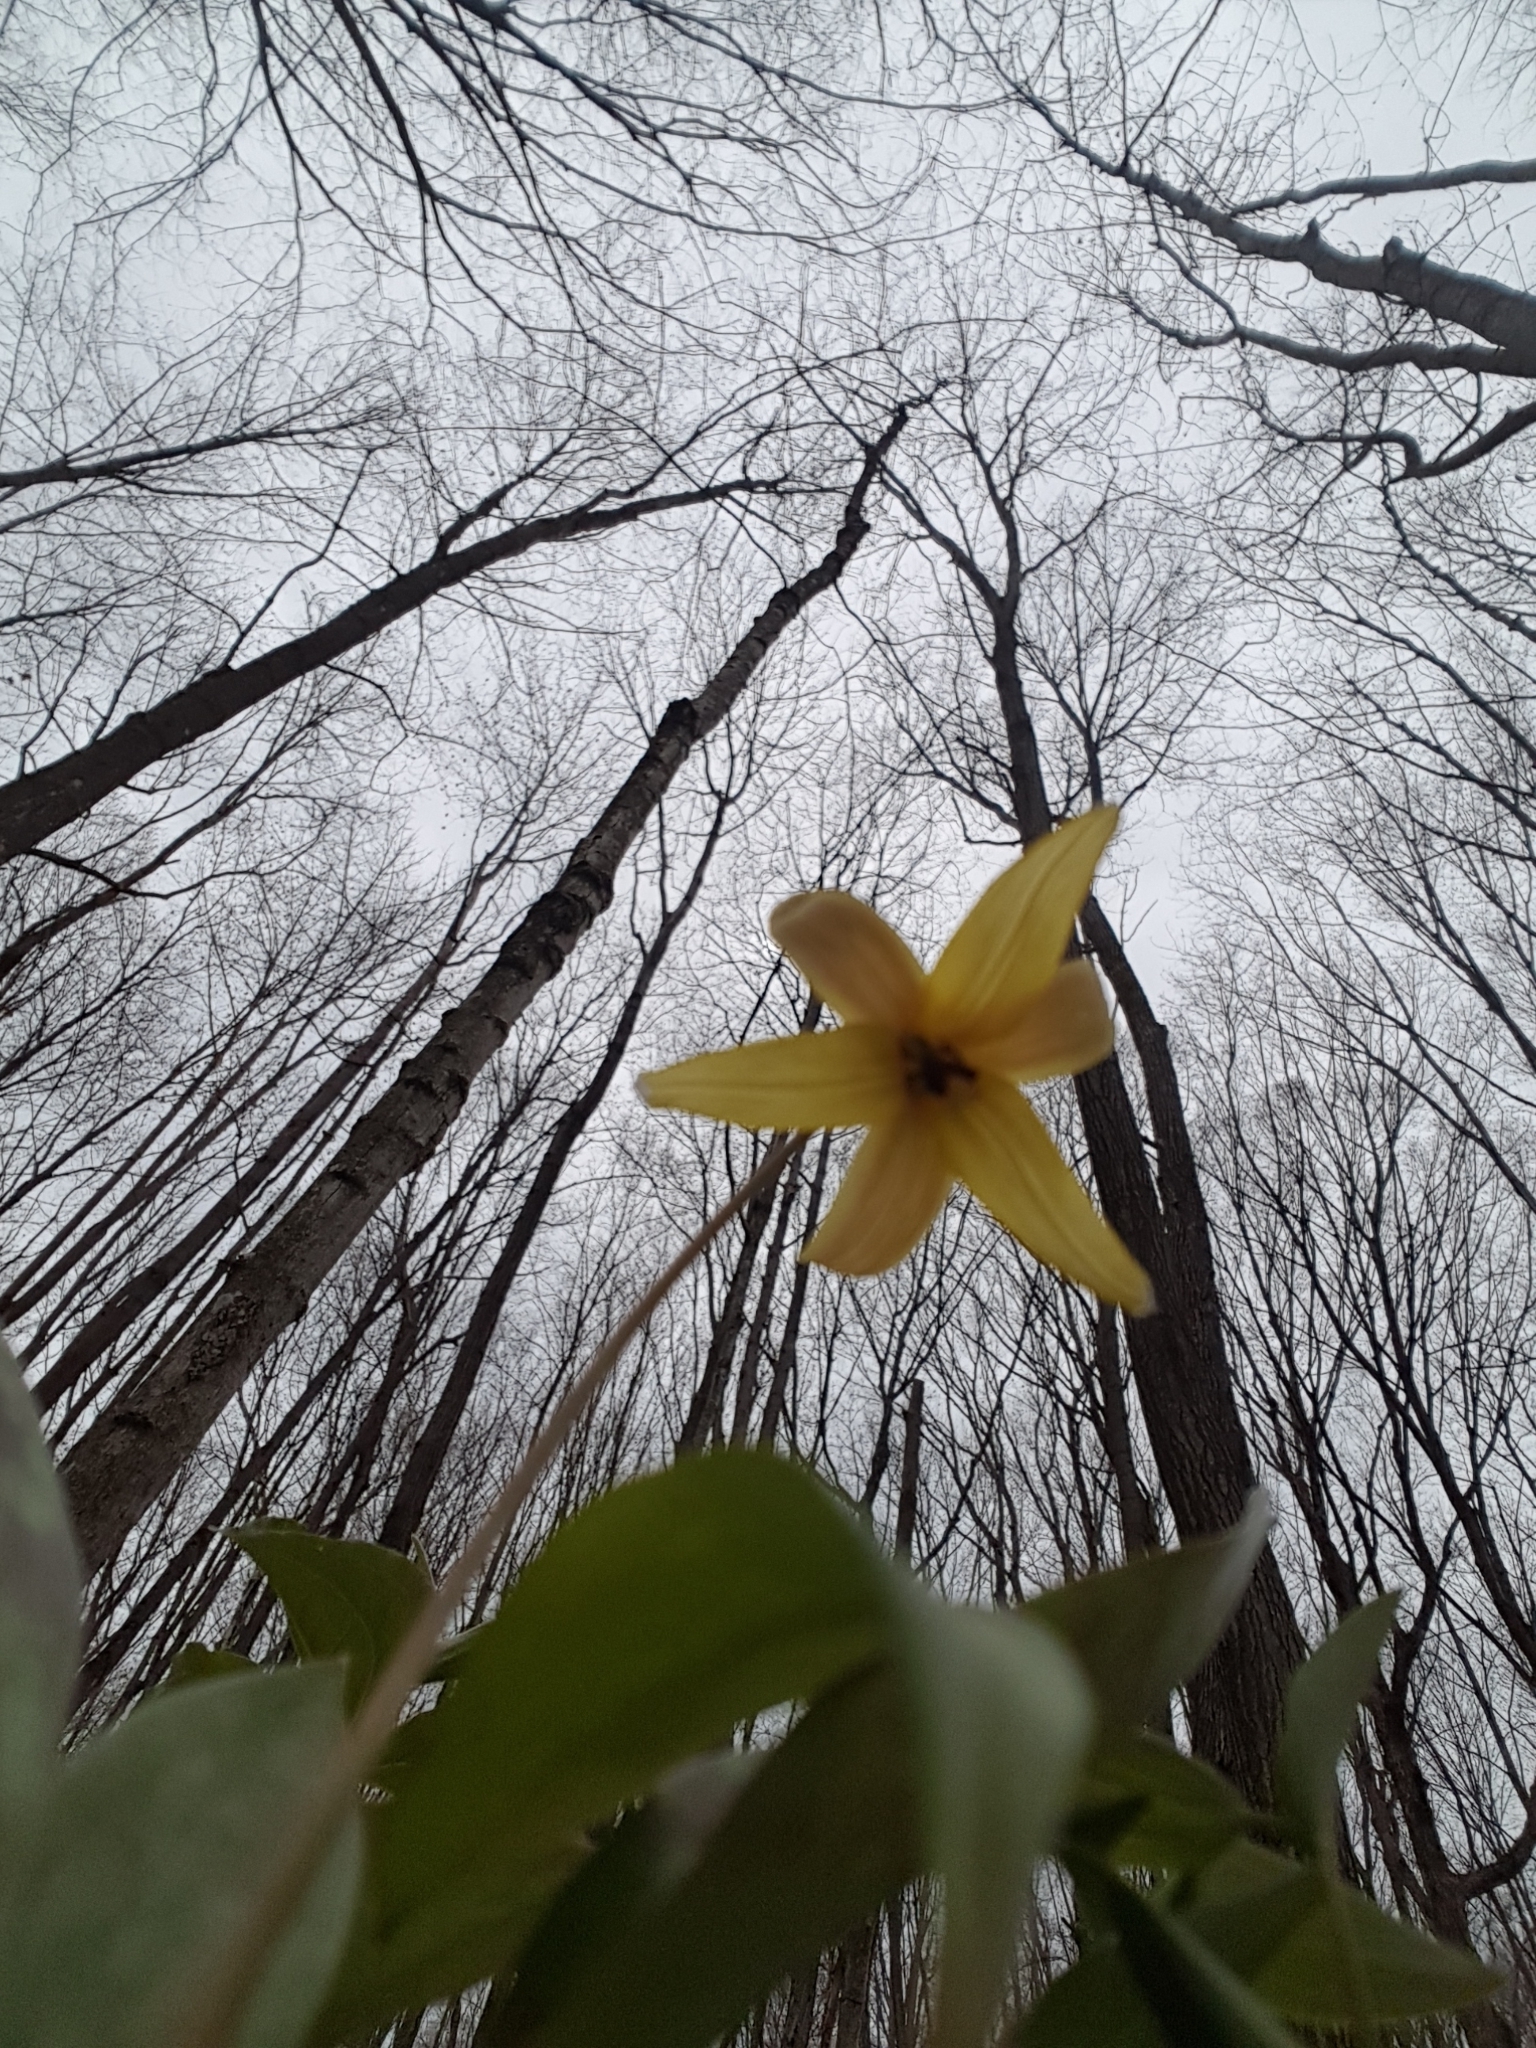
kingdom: Plantae
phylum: Tracheophyta
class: Liliopsida
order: Liliales
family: Liliaceae
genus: Erythronium
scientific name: Erythronium americanum
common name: Yellow adder's-tongue
